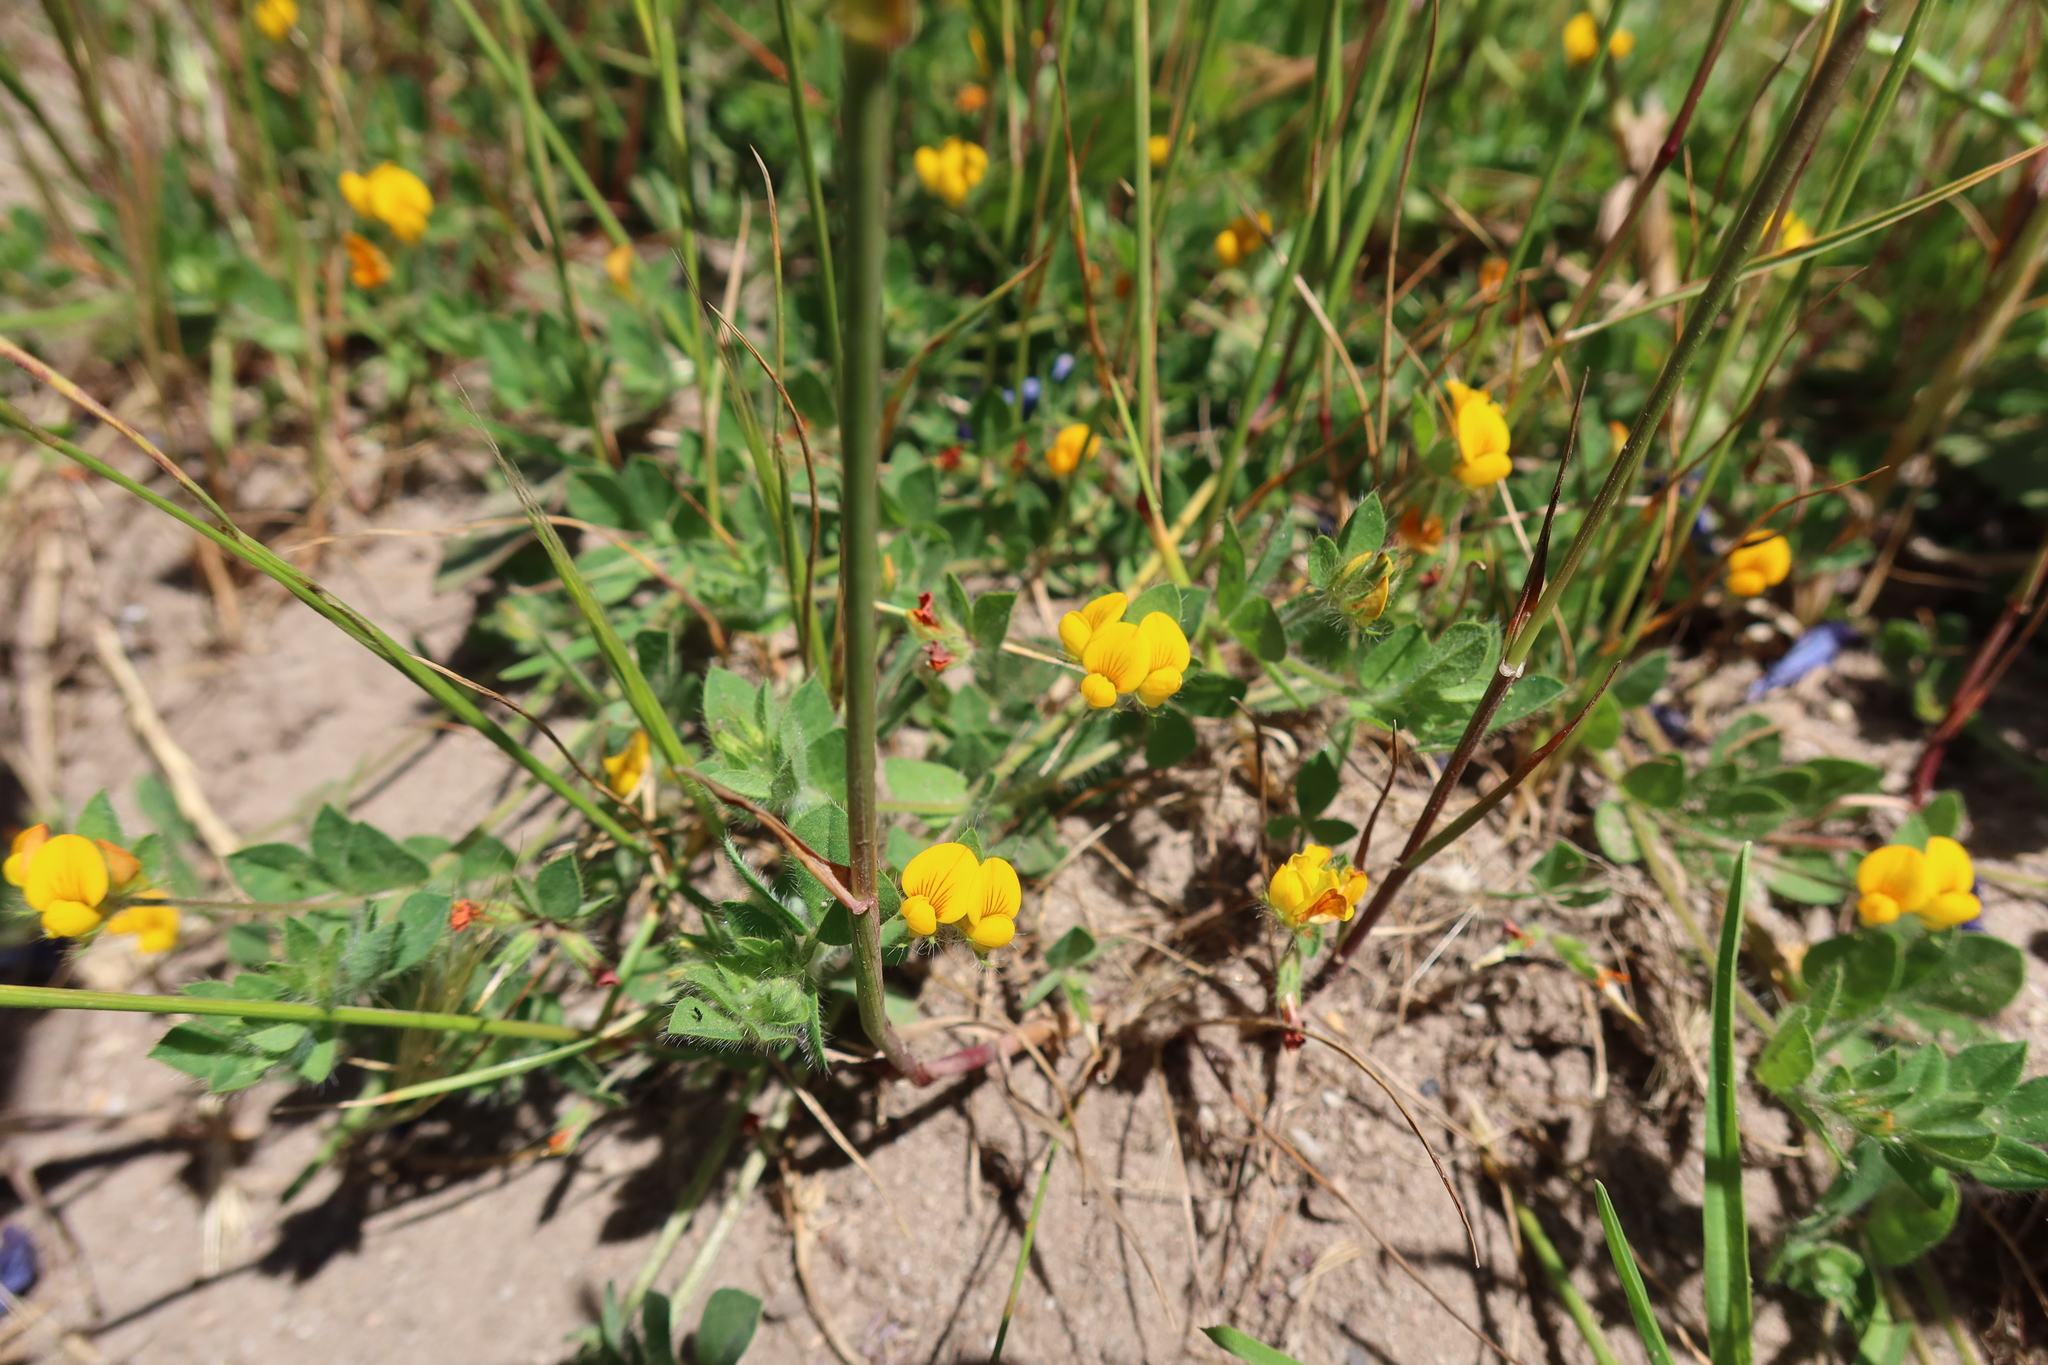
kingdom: Plantae
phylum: Tracheophyta
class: Magnoliopsida
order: Fabales
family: Fabaceae
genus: Lotus
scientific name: Lotus subbiflorus
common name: Hairy bird's-foot trefoil
